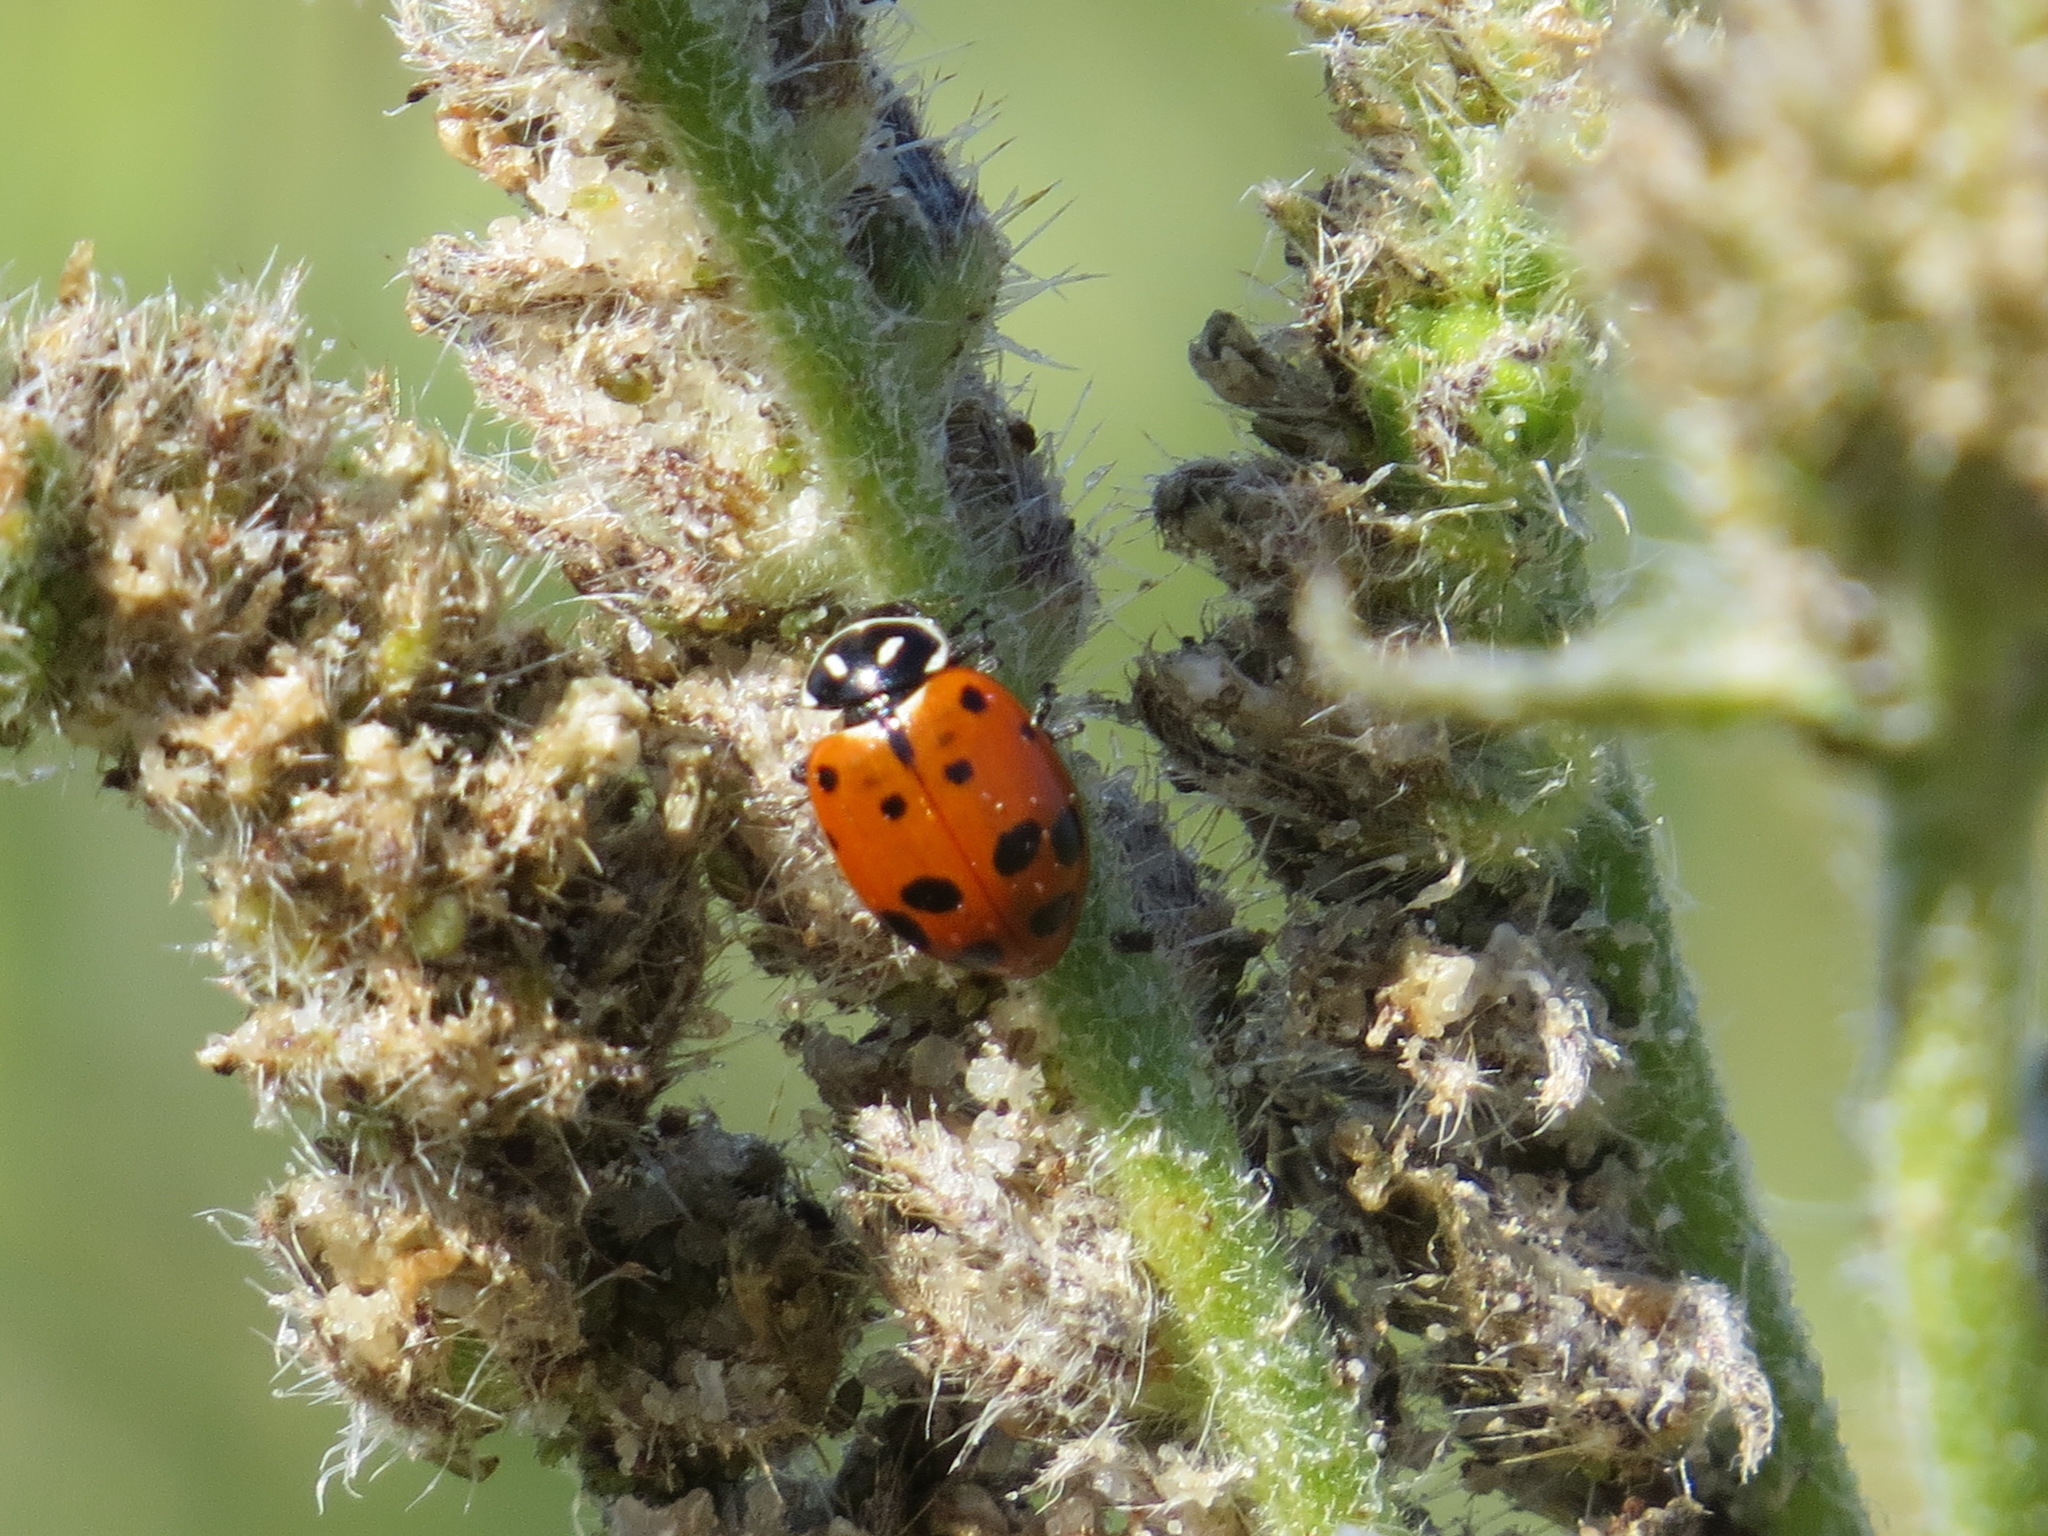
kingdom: Animalia
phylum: Arthropoda
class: Insecta
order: Coleoptera
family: Coccinellidae
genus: Hippodamia
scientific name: Hippodamia convergens
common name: Convergent lady beetle
